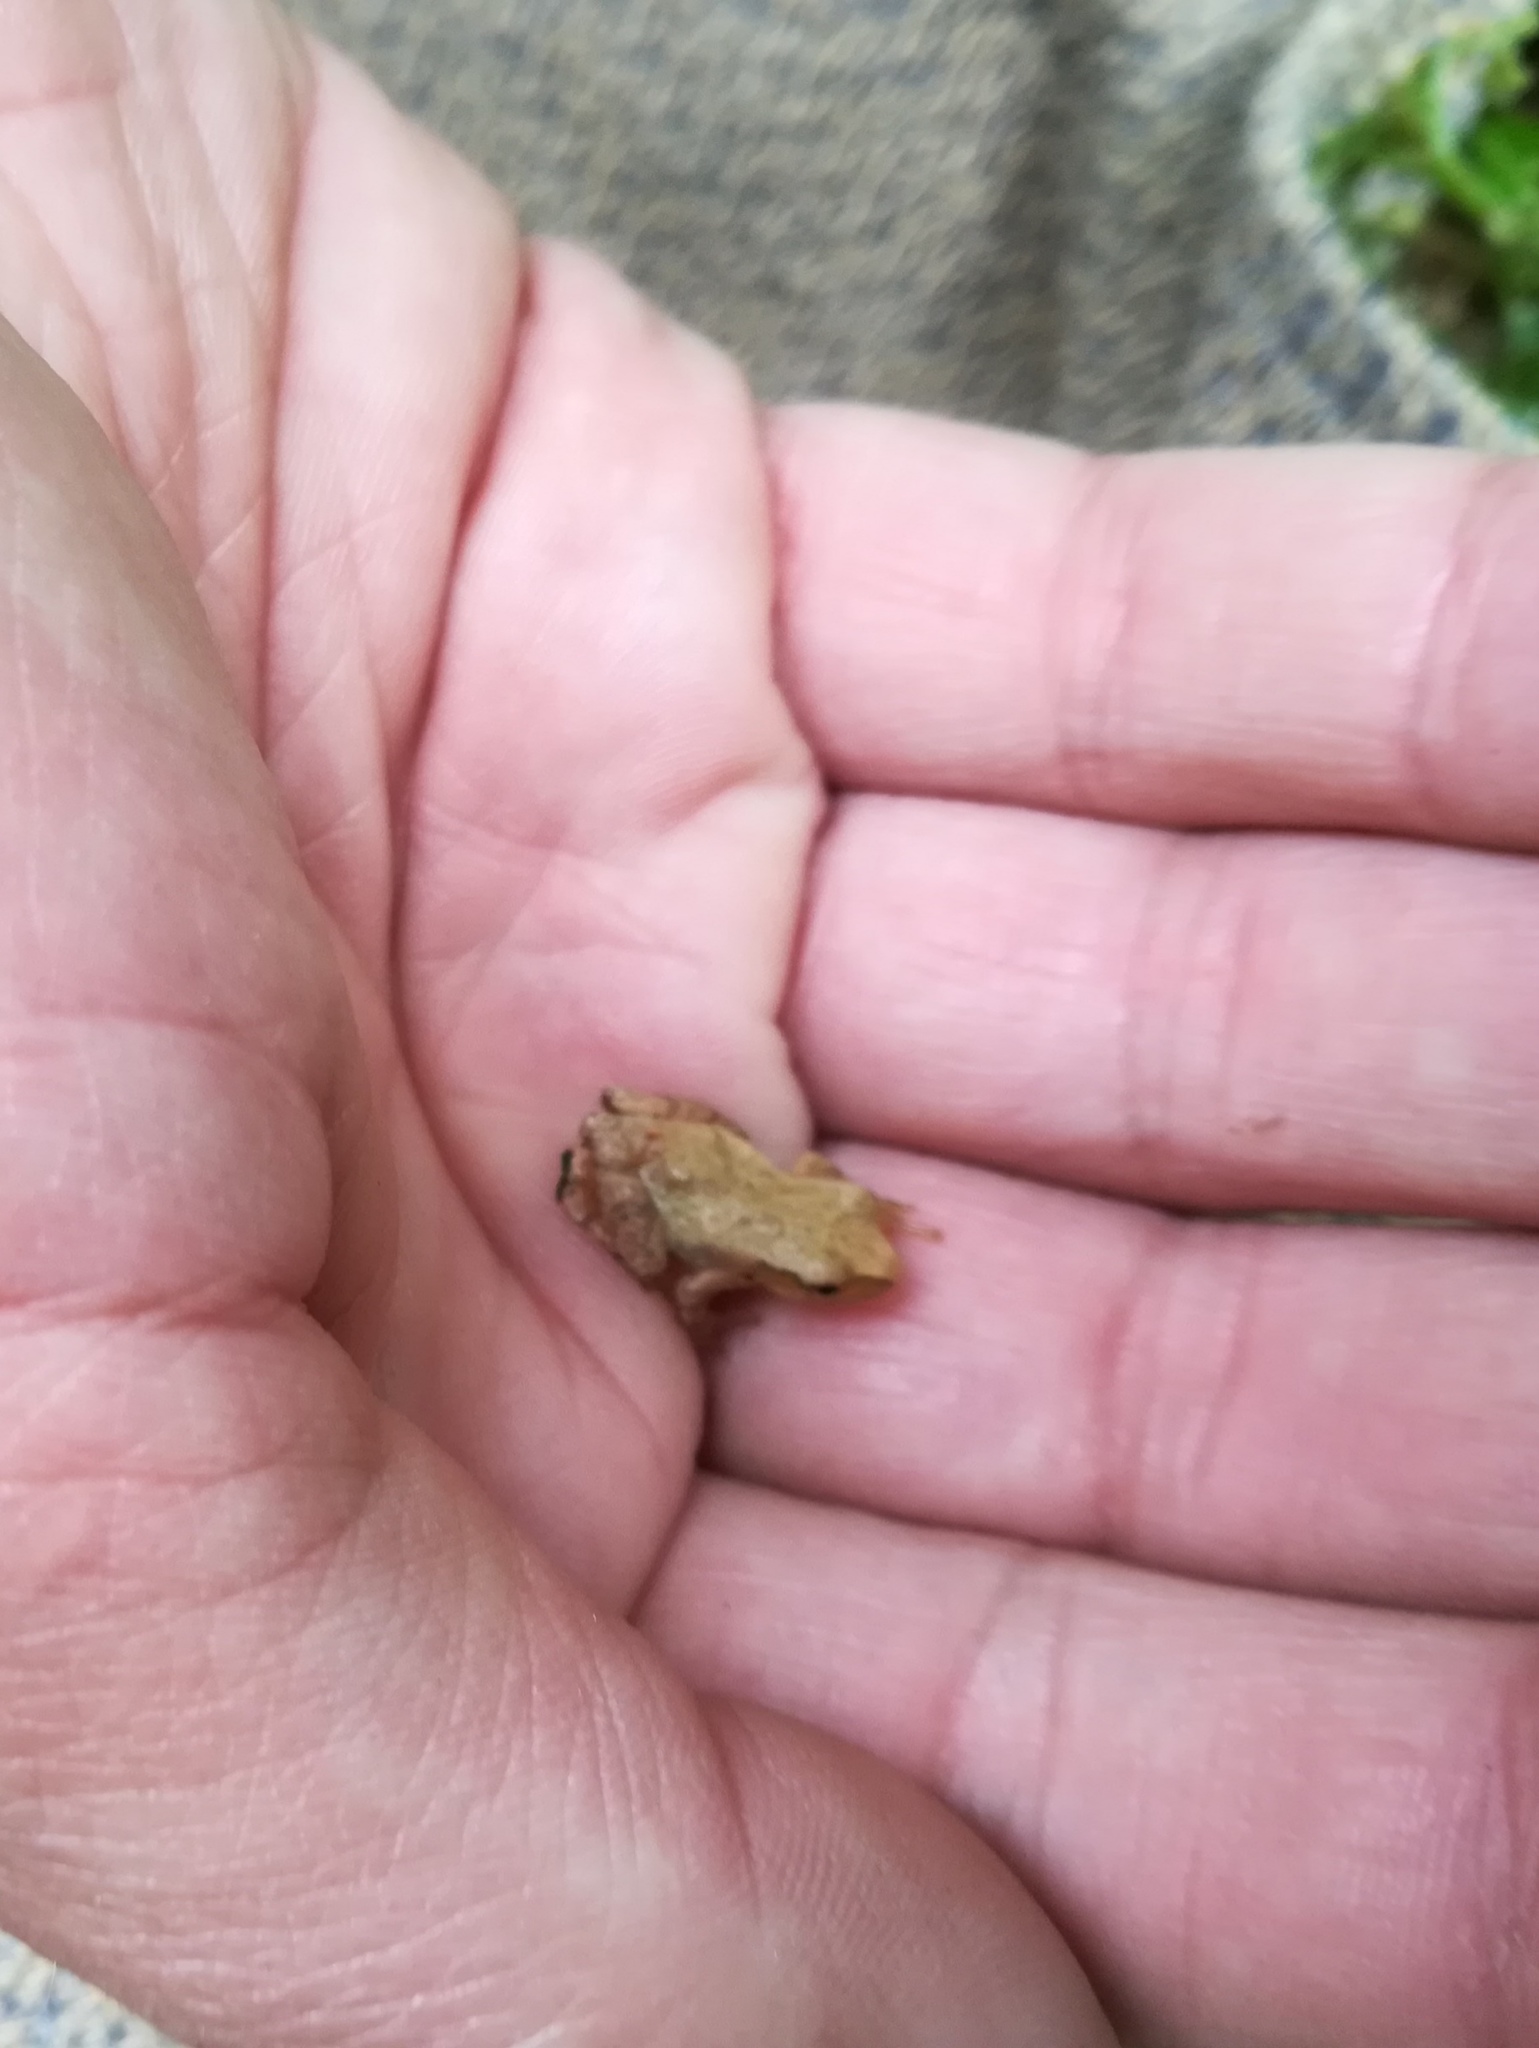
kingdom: Animalia
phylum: Chordata
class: Amphibia
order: Anura
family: Hylidae
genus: Pseudacris
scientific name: Pseudacris crucifer
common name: Spring peeper
